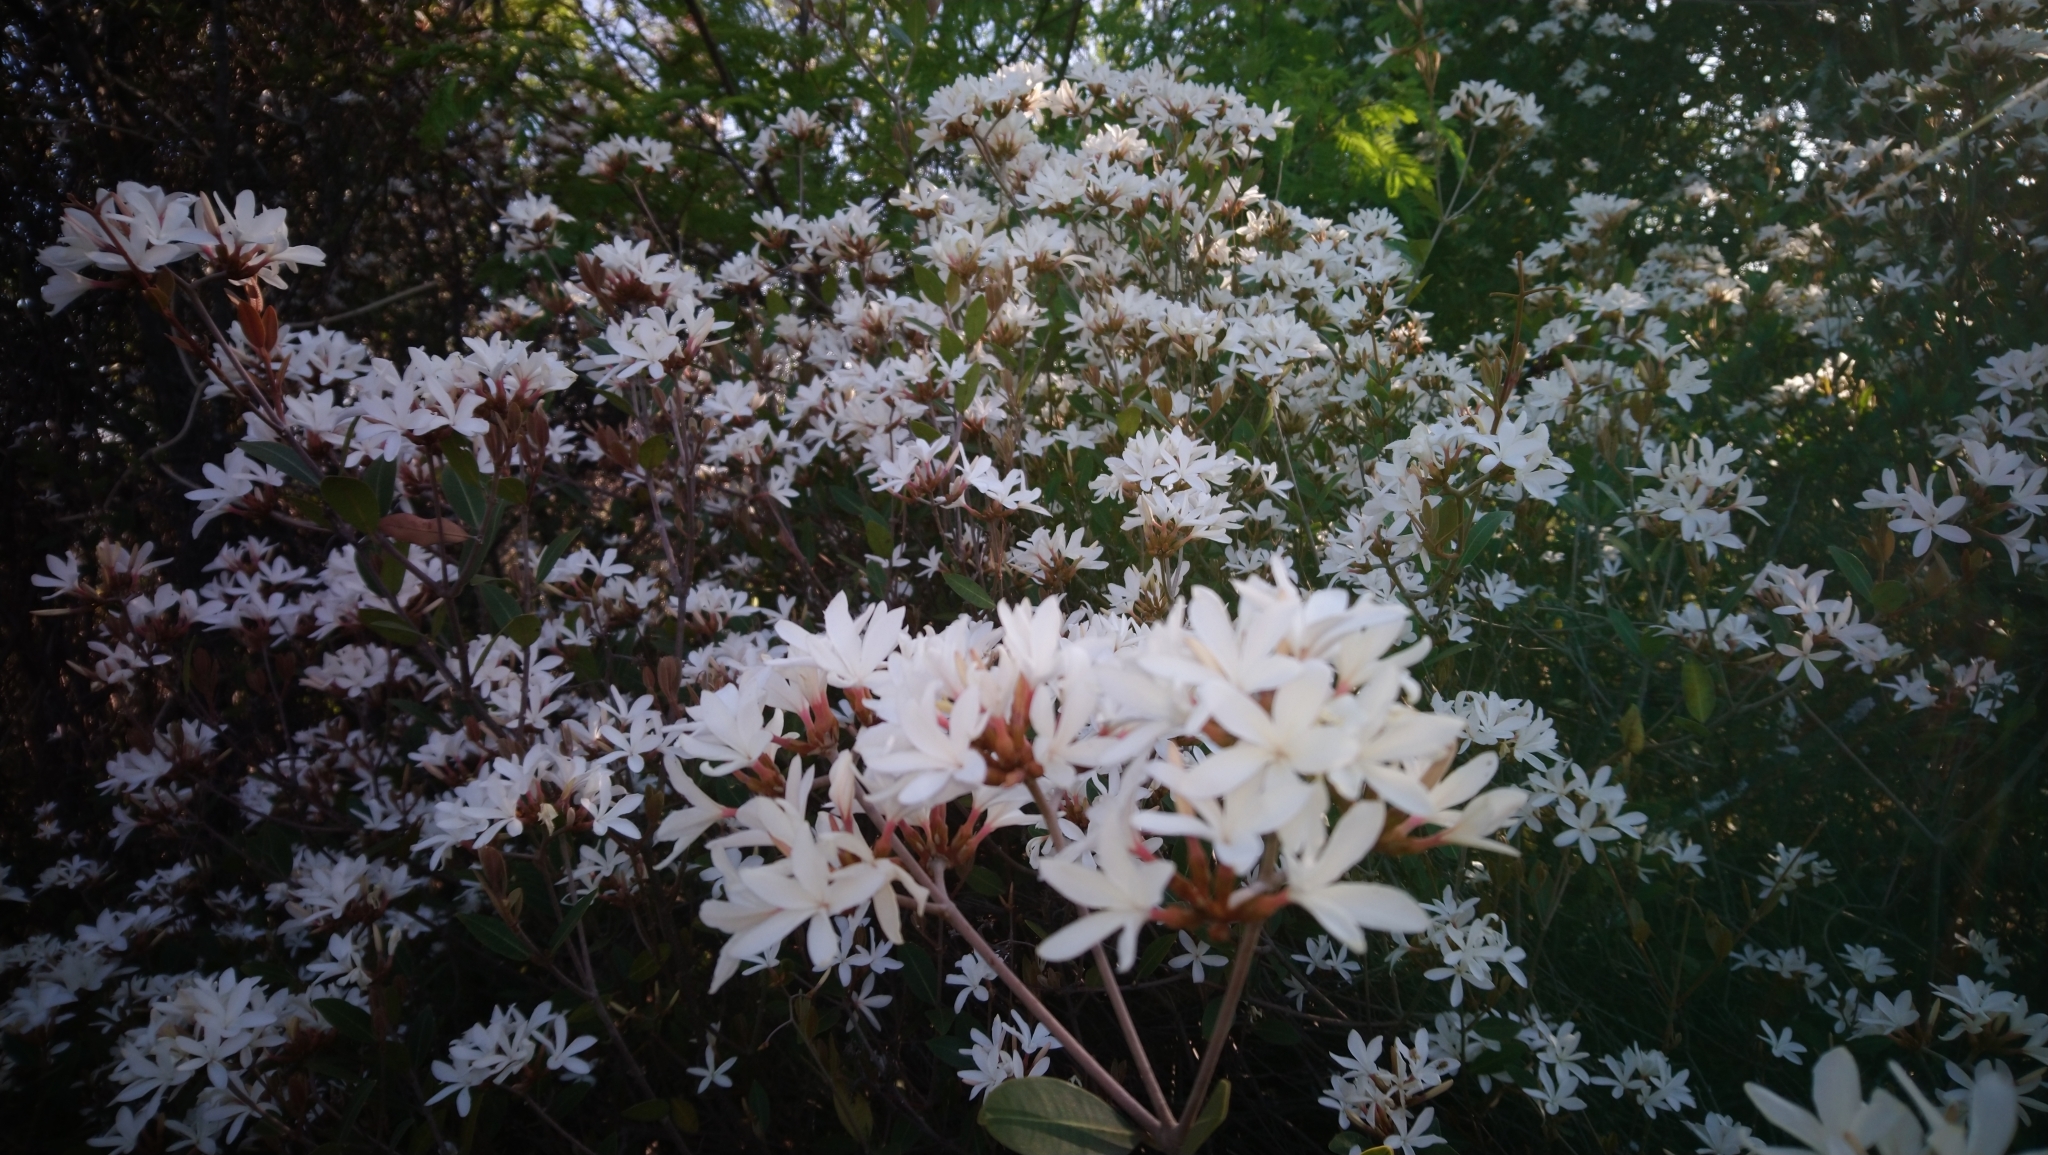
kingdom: Plantae
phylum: Tracheophyta
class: Magnoliopsida
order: Gentianales
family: Apocynaceae
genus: Ancylobothrys
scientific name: Ancylobothrys capensis
